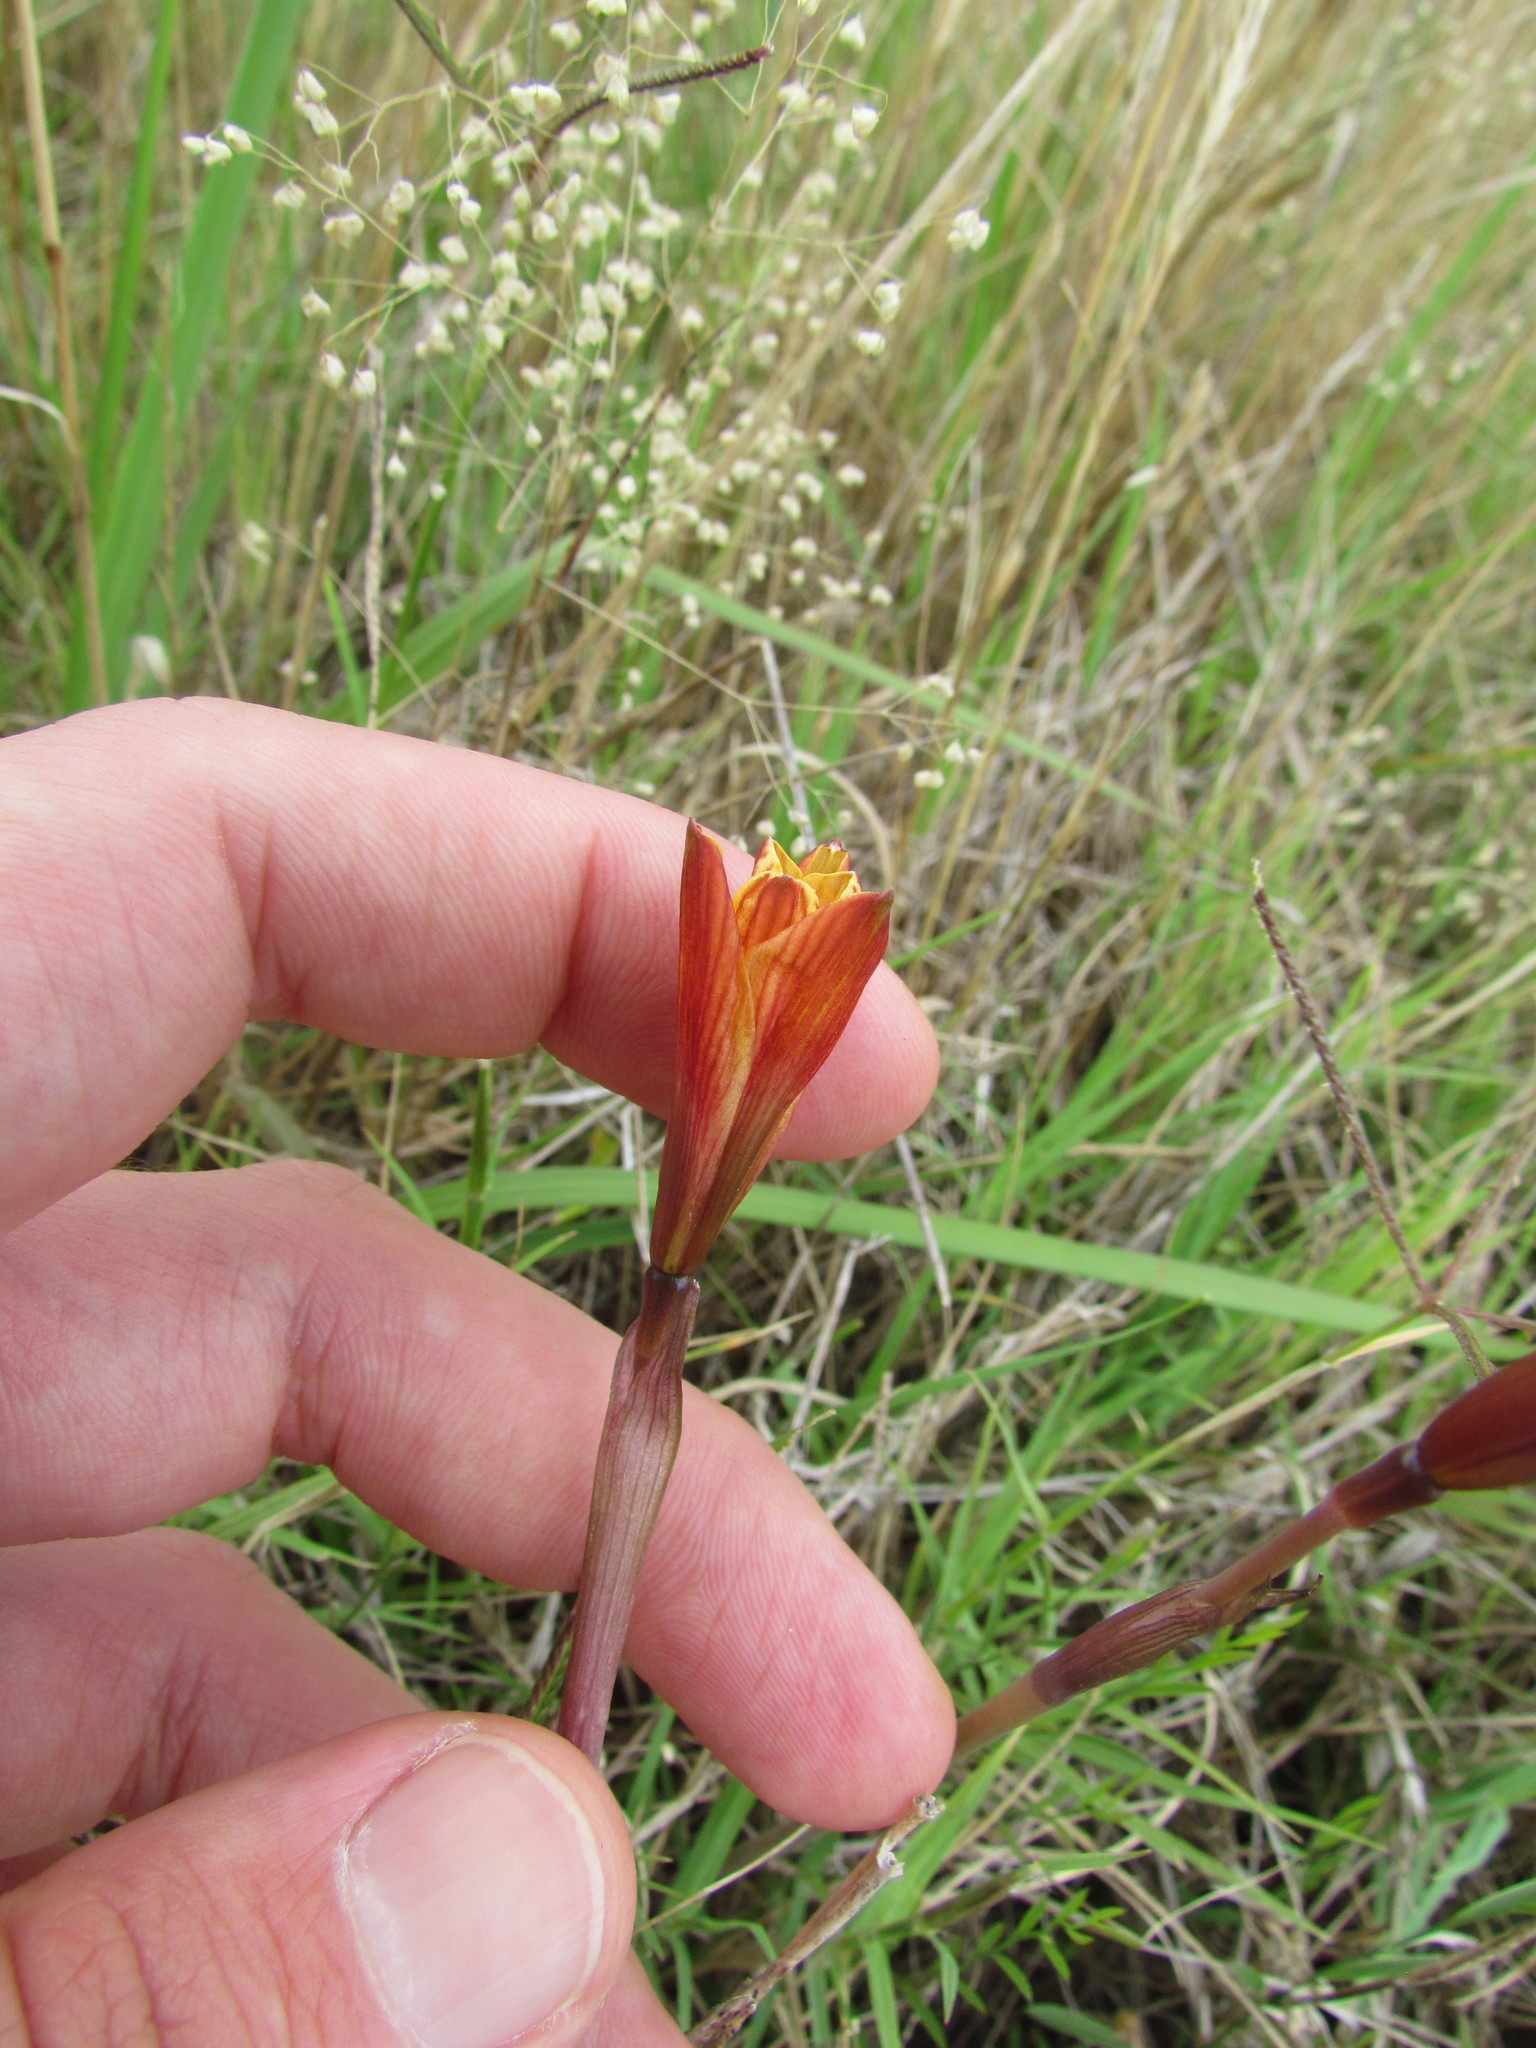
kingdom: Plantae
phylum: Tracheophyta
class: Liliopsida
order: Asparagales
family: Amaryllidaceae
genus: Zephyranthes
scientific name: Zephyranthes tubispatha
